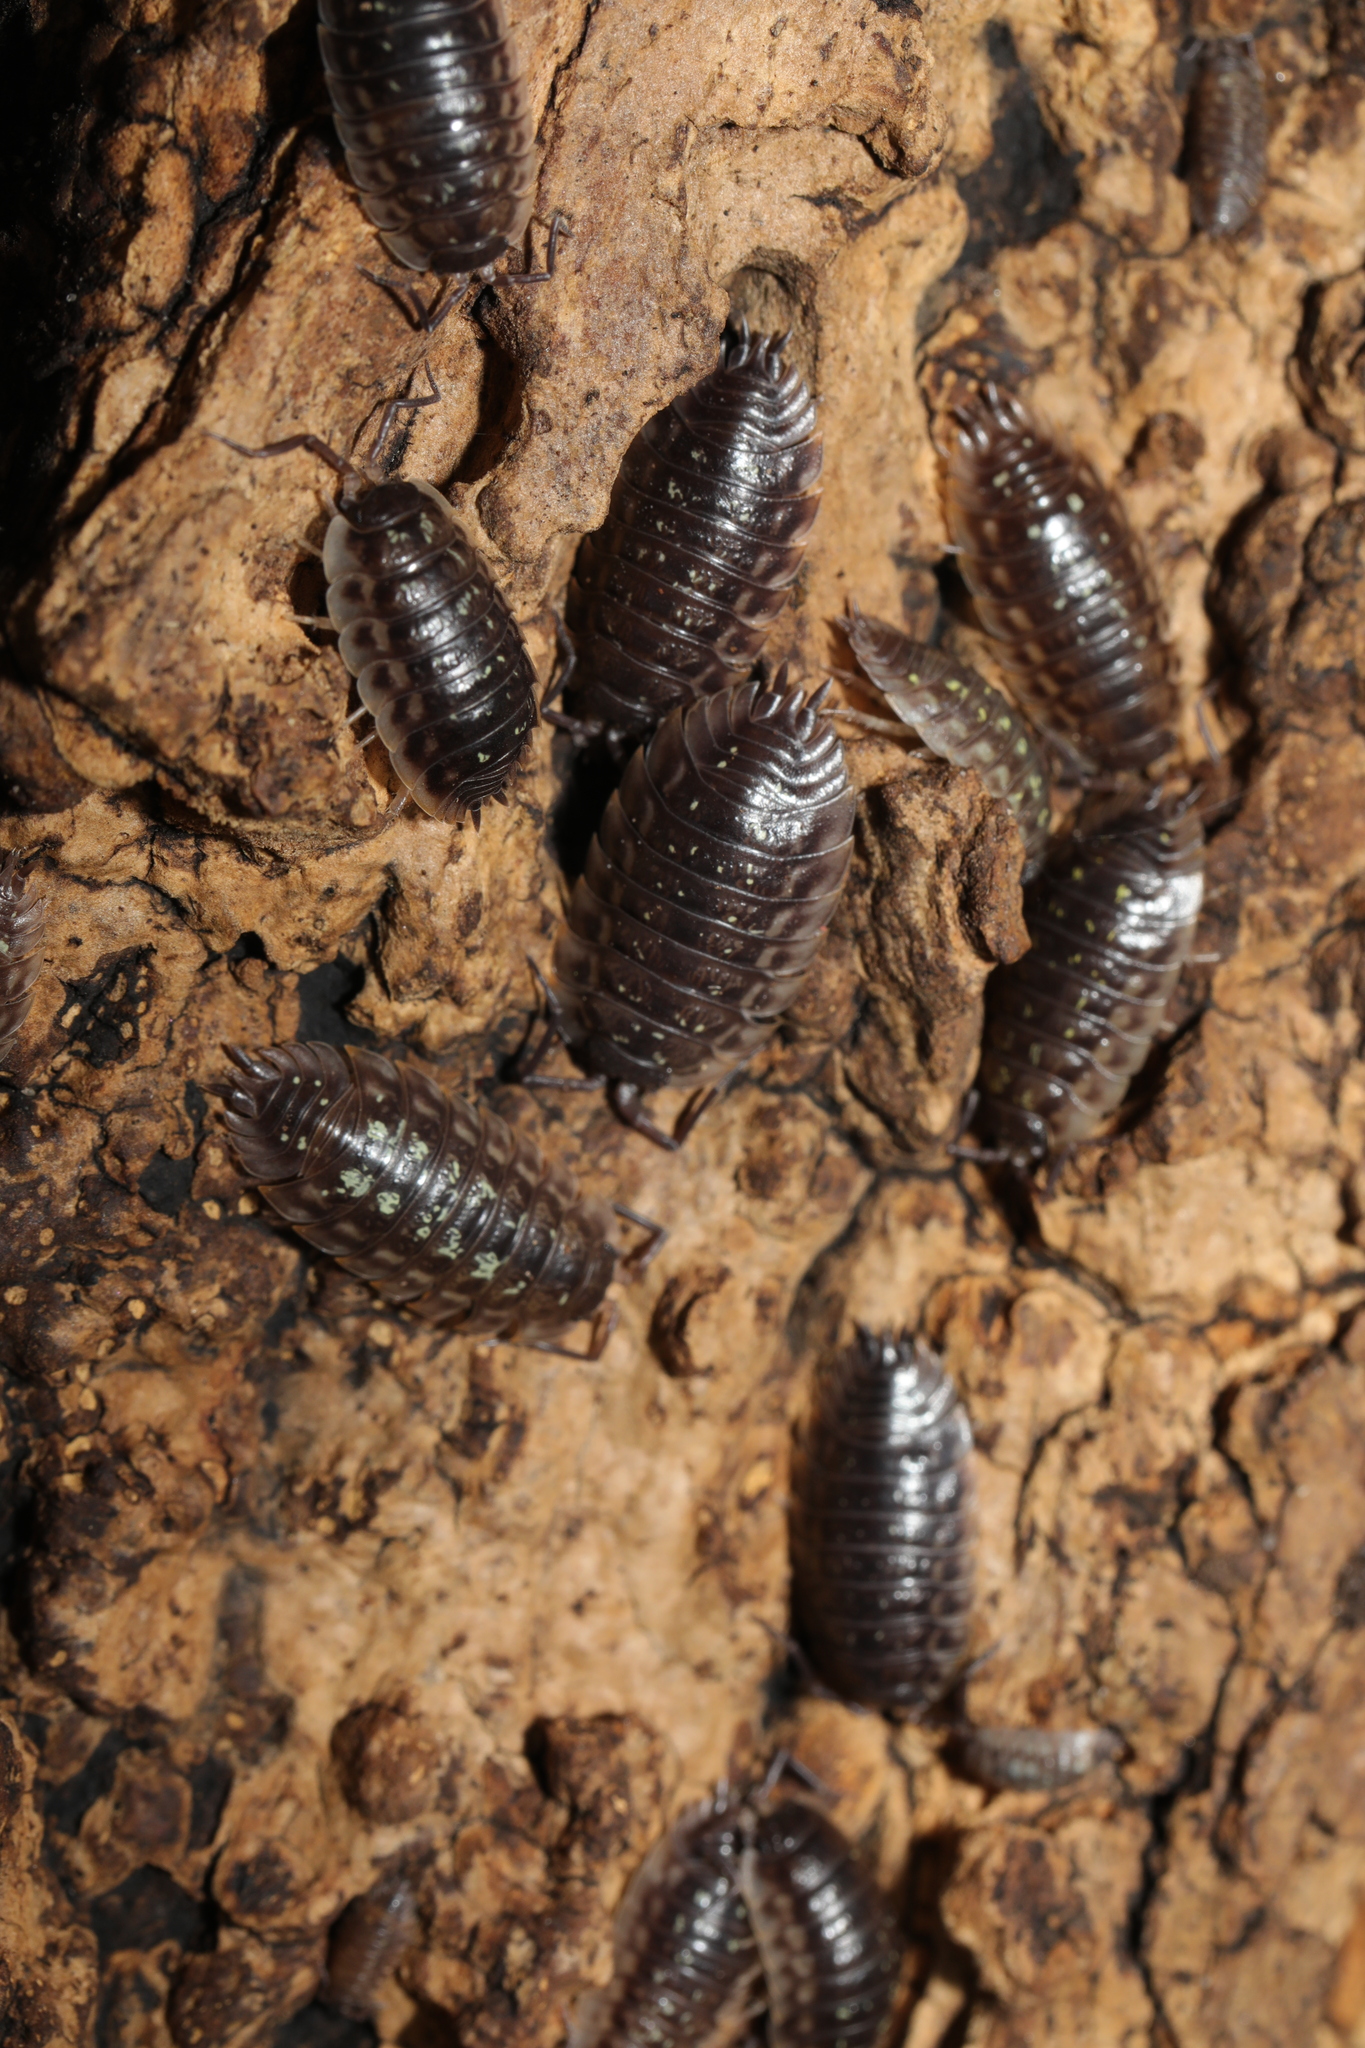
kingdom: Animalia
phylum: Arthropoda
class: Malacostraca
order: Isopoda
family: Oniscidae
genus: Oniscus
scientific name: Oniscus asellus
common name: Common shiny woodlouse
